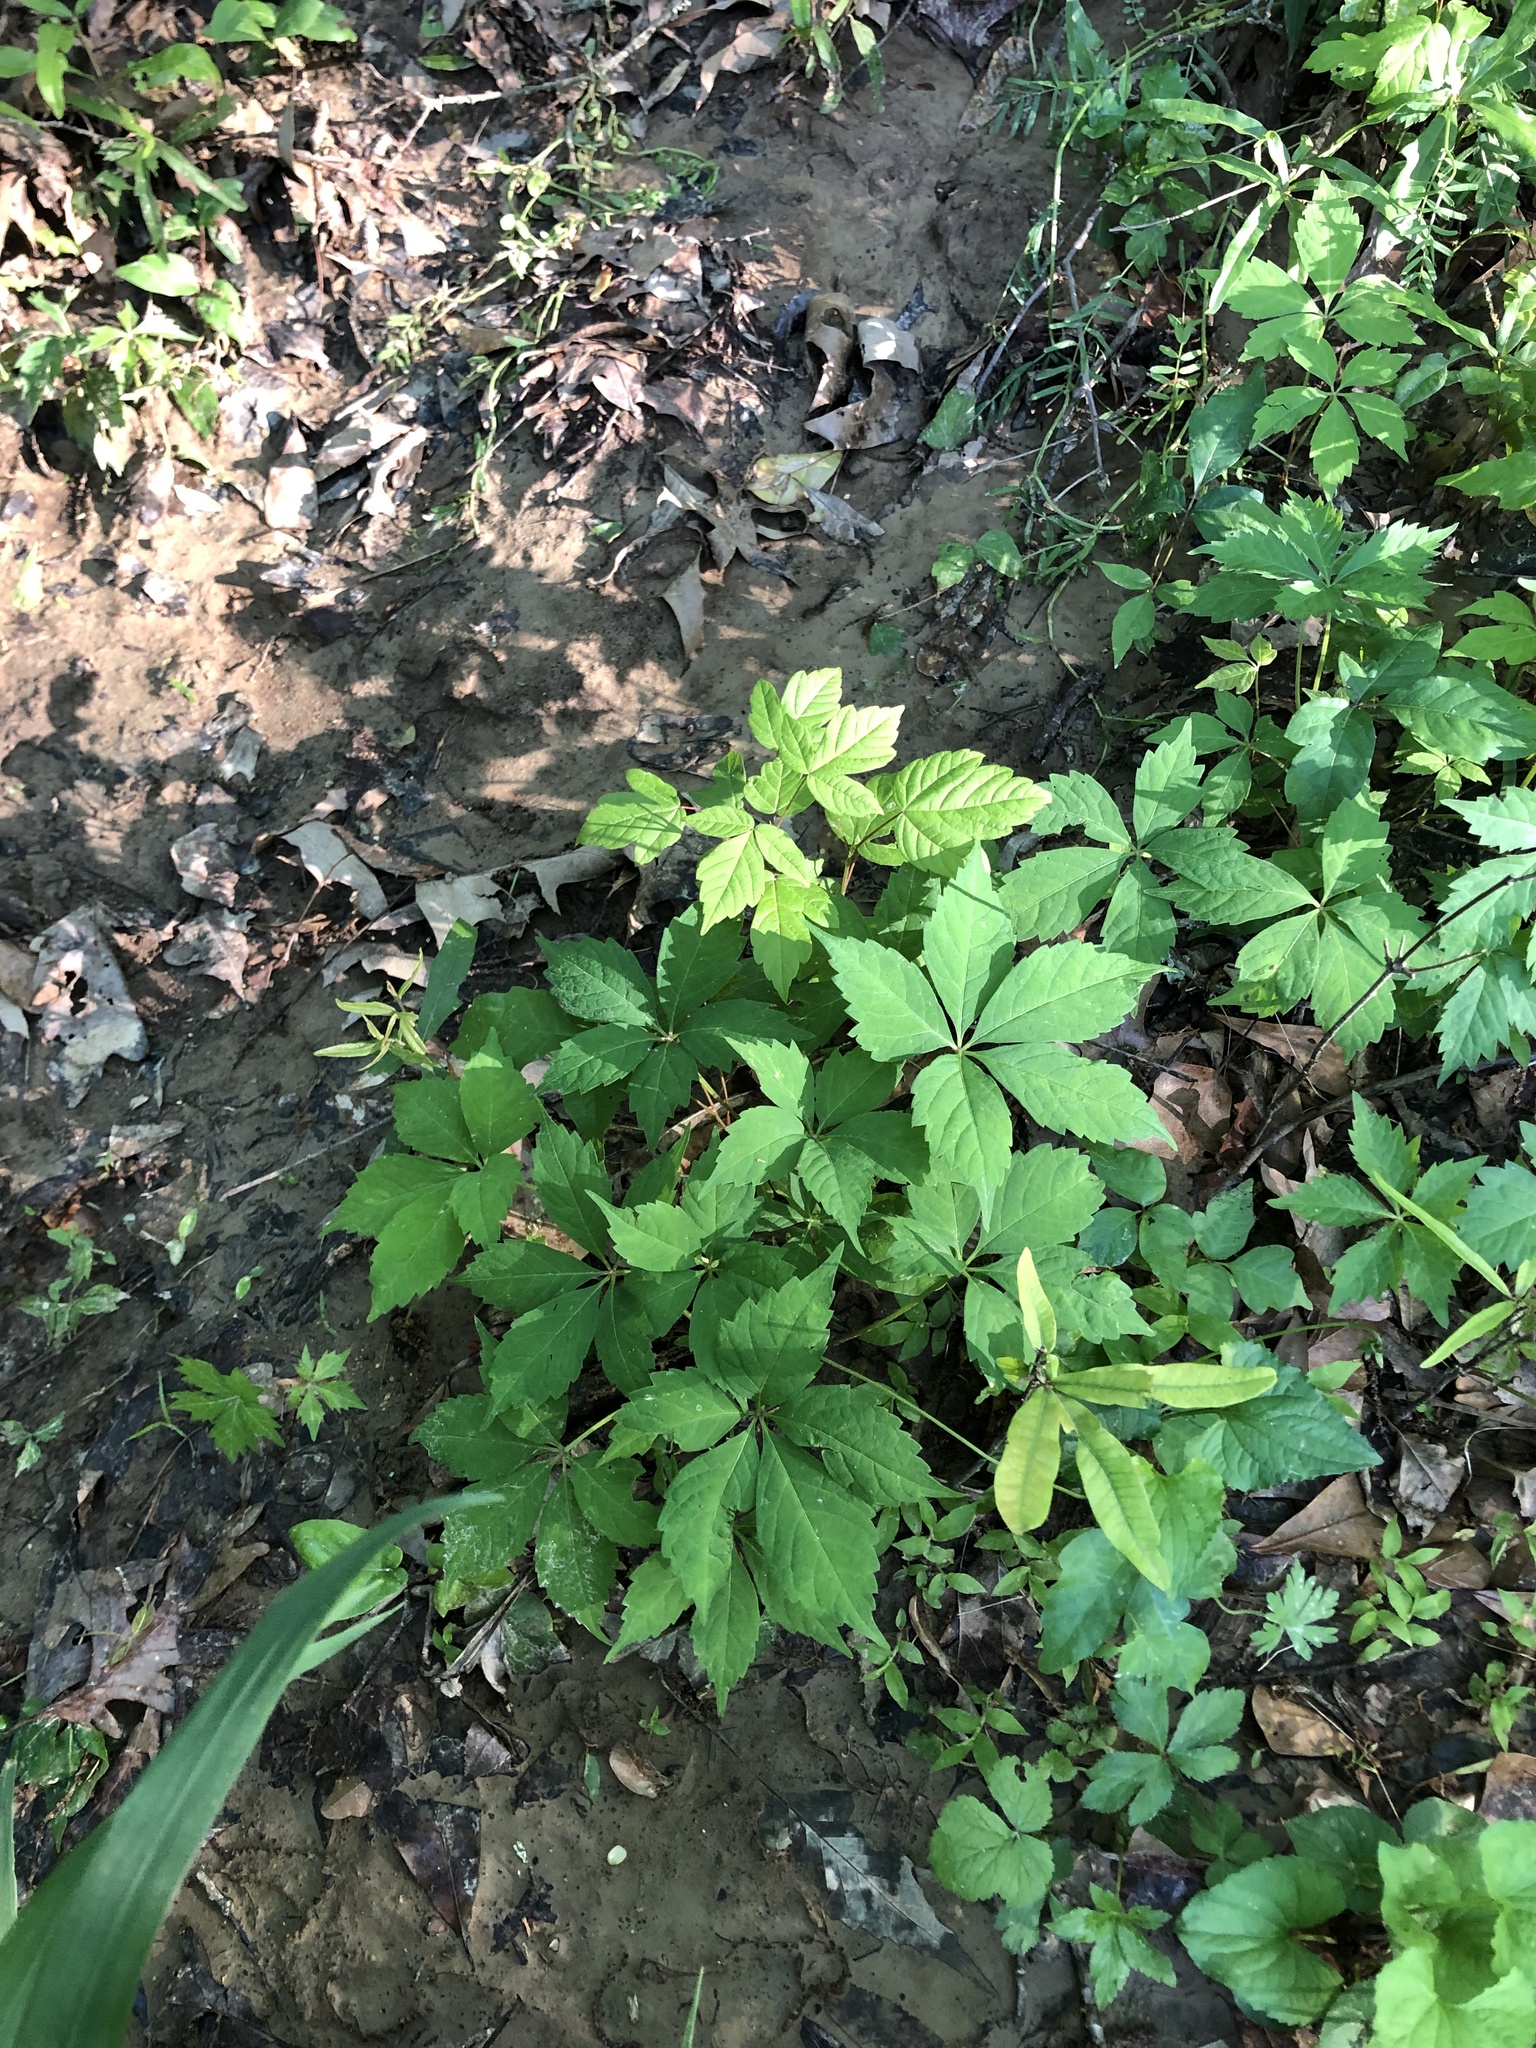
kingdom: Plantae
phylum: Tracheophyta
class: Magnoliopsida
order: Vitales
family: Vitaceae
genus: Parthenocissus
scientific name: Parthenocissus quinquefolia
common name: Virginia-creeper
